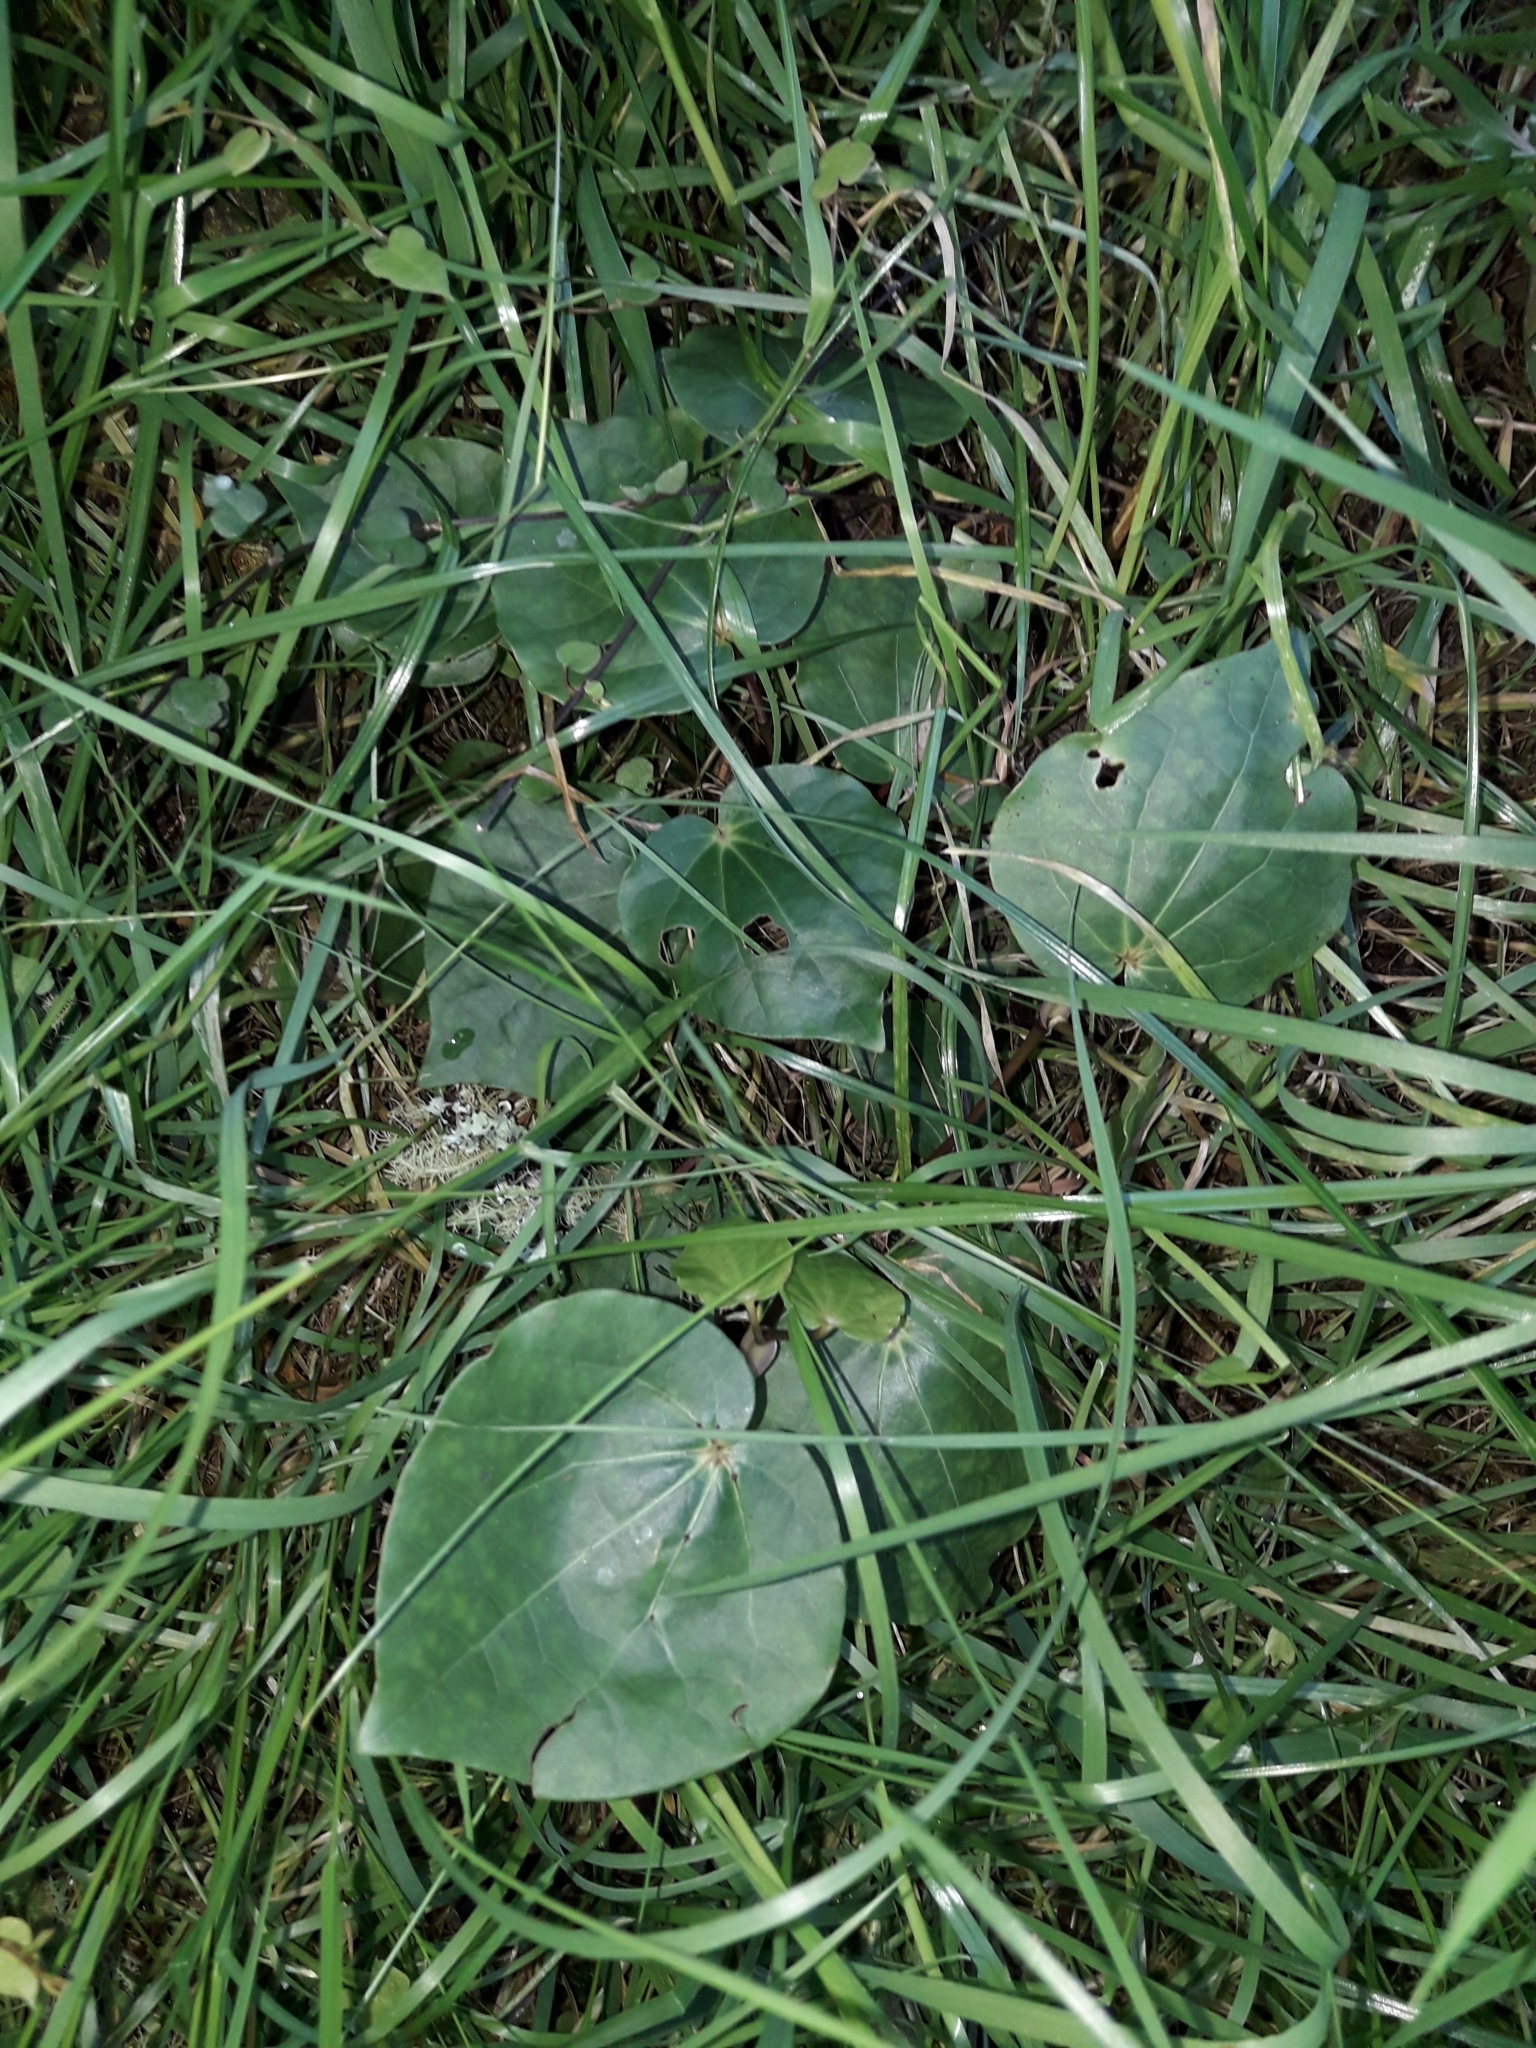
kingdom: Plantae
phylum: Tracheophyta
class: Magnoliopsida
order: Piperales
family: Piperaceae
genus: Macropiper
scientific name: Macropiper excelsum
